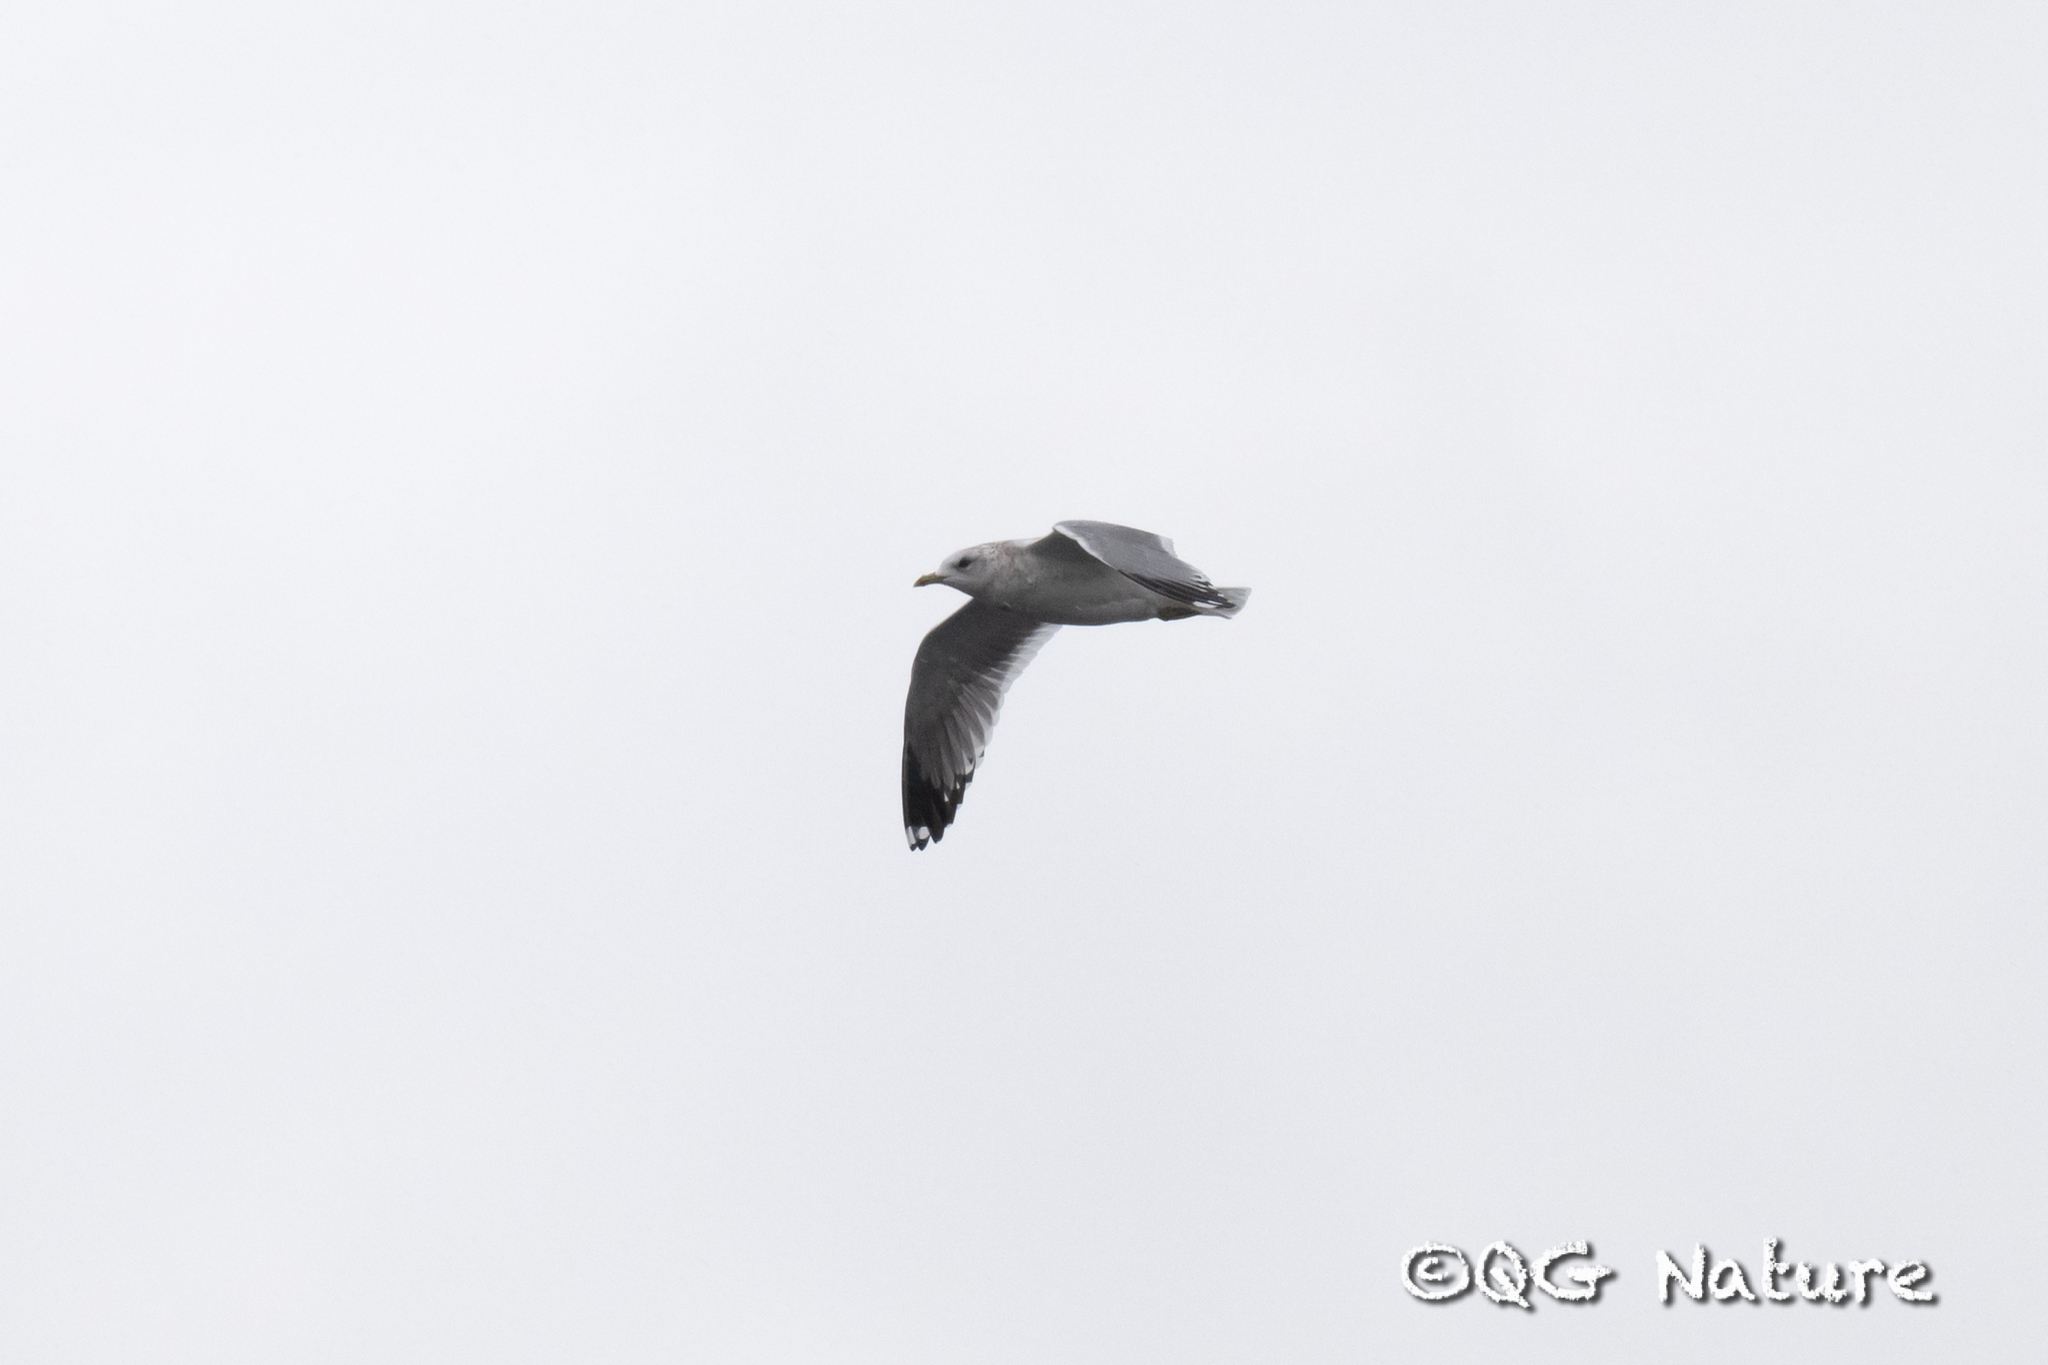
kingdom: Animalia
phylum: Chordata
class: Aves
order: Charadriiformes
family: Laridae
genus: Larus
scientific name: Larus canus
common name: Mew gull
